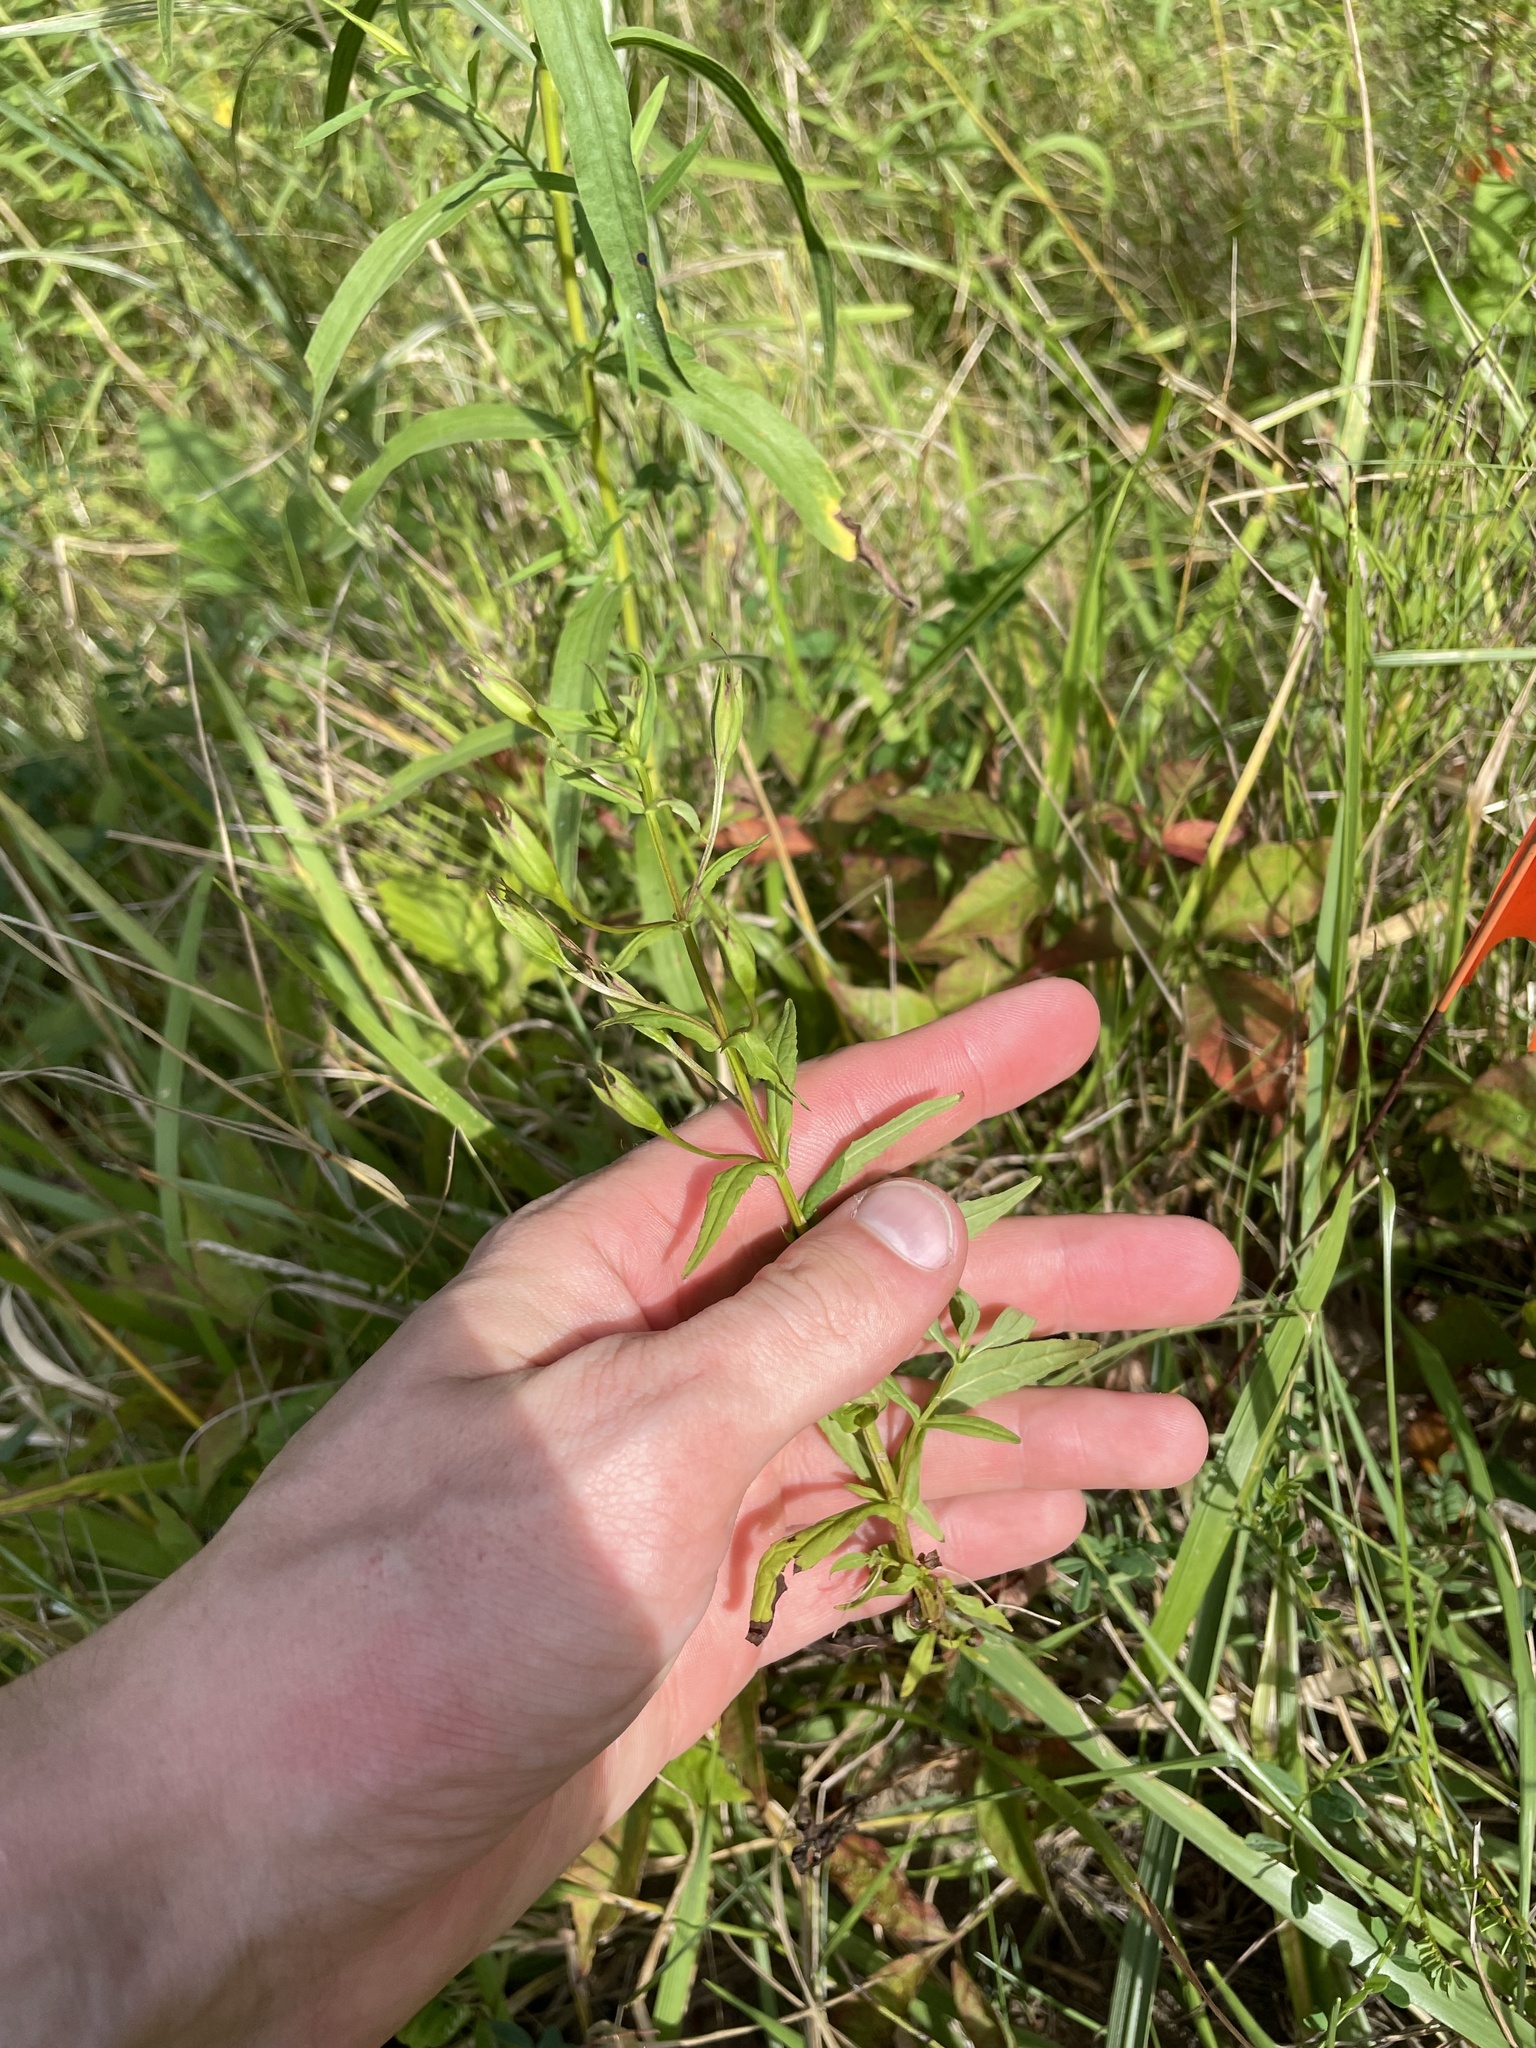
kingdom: Plantae
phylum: Tracheophyta
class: Magnoliopsida
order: Lamiales
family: Phrymaceae
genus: Mimulus
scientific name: Mimulus ringens
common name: Allegheny monkeyflower
